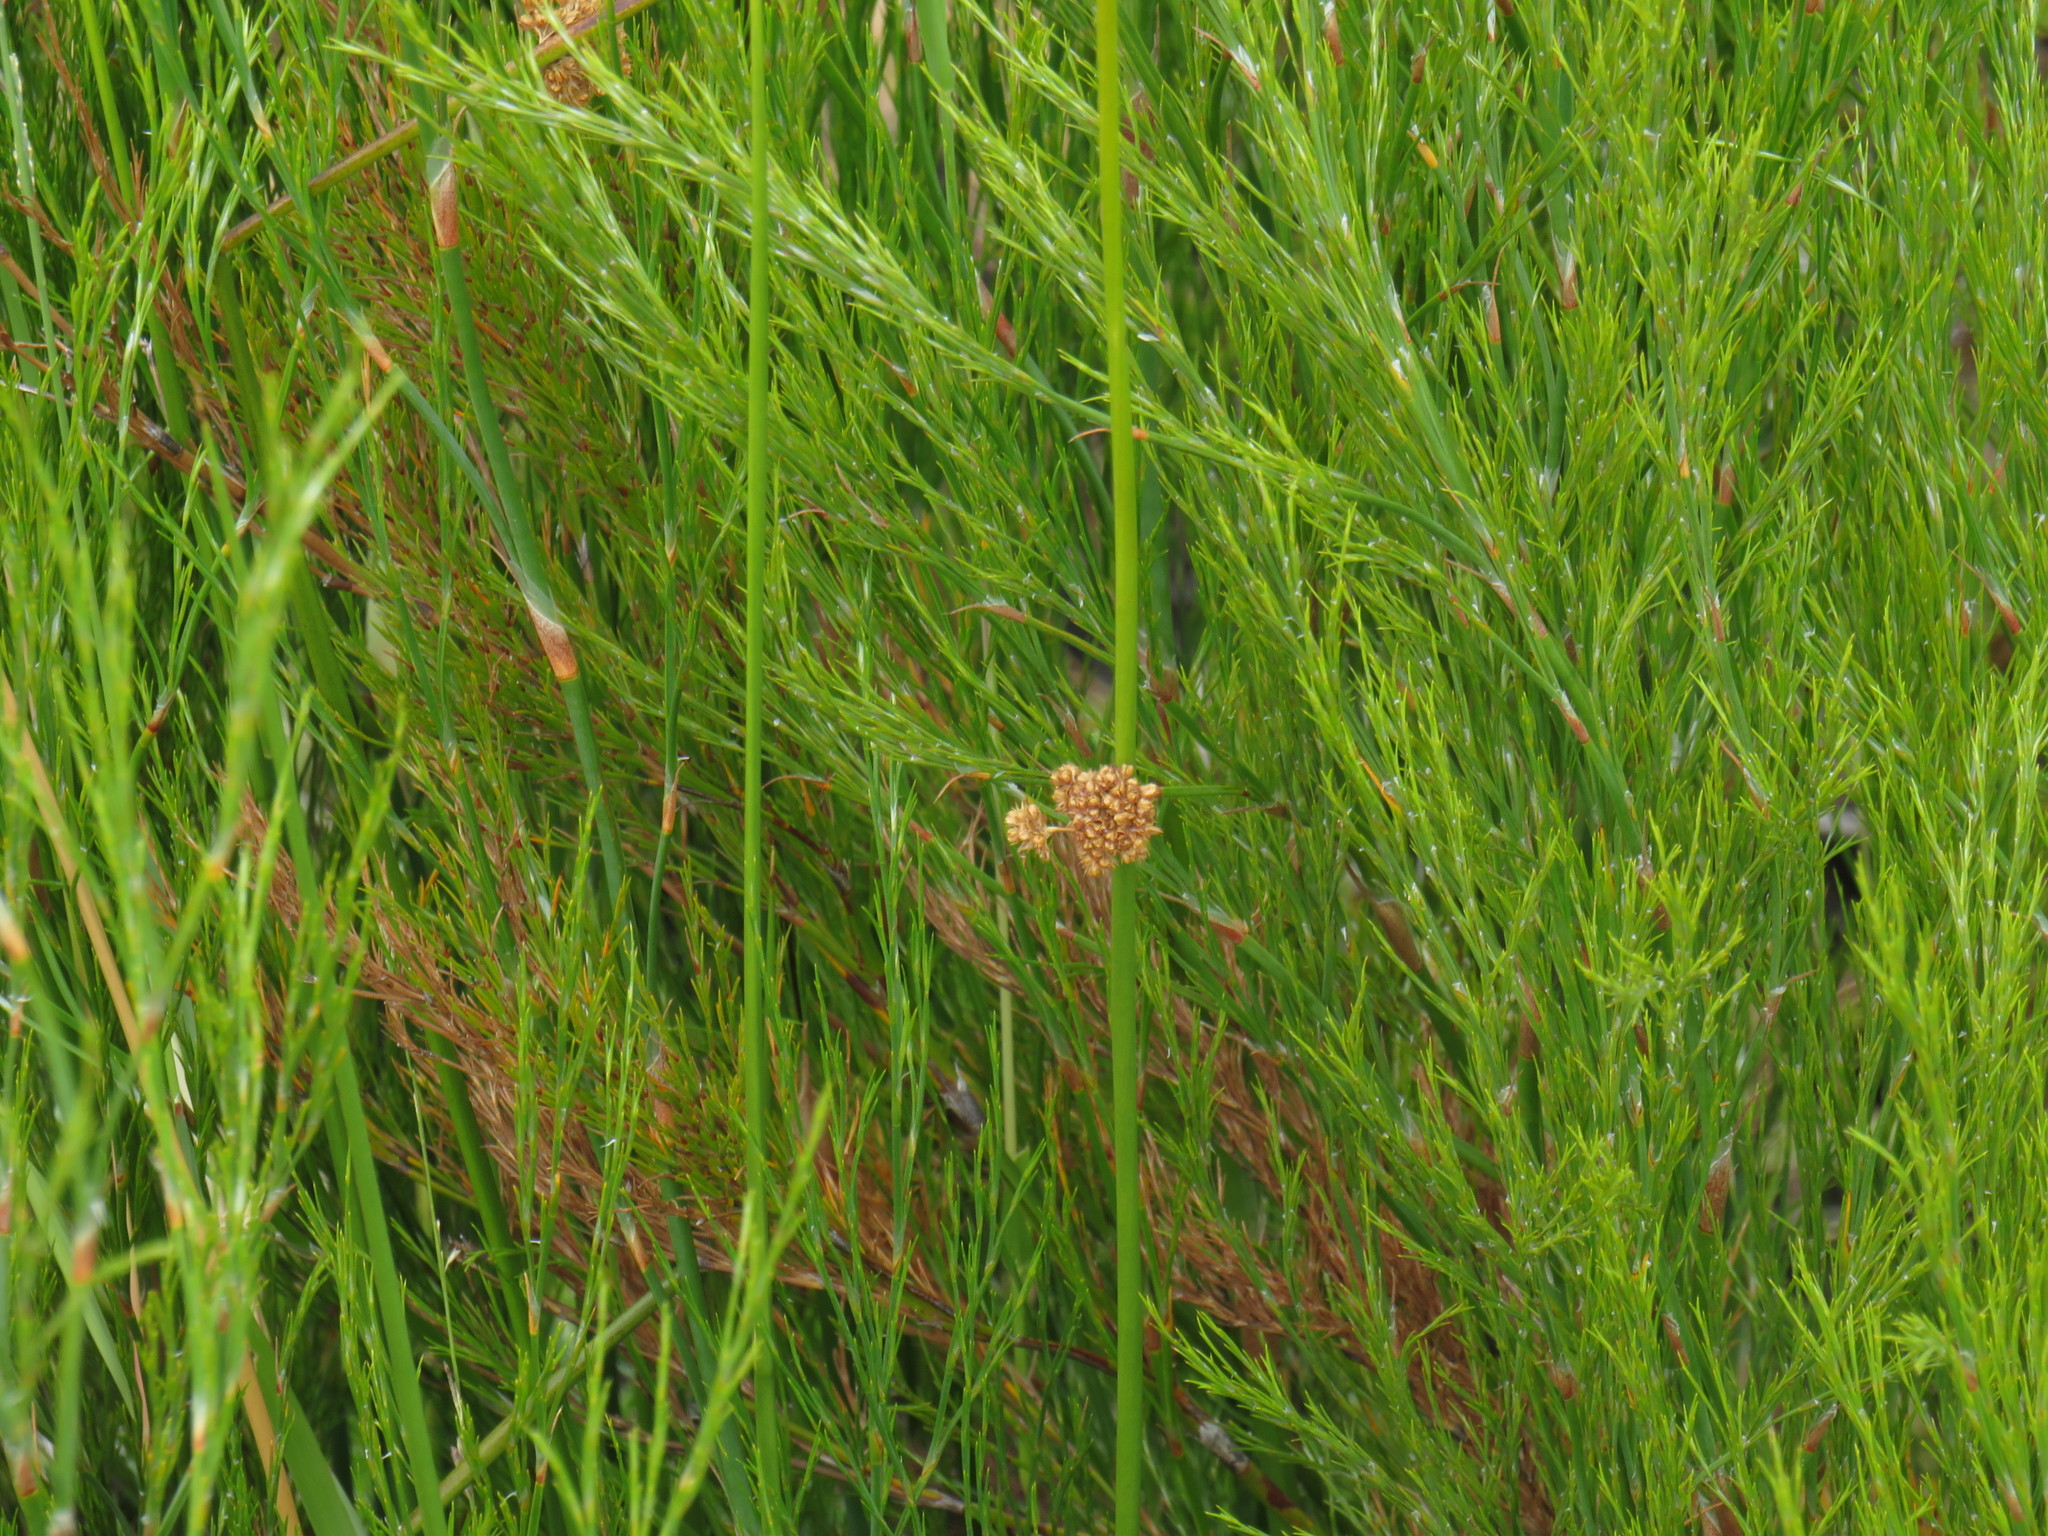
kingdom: Plantae
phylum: Tracheophyta
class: Liliopsida
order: Poales
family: Juncaceae
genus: Juncus
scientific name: Juncus effusus
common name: Soft rush
